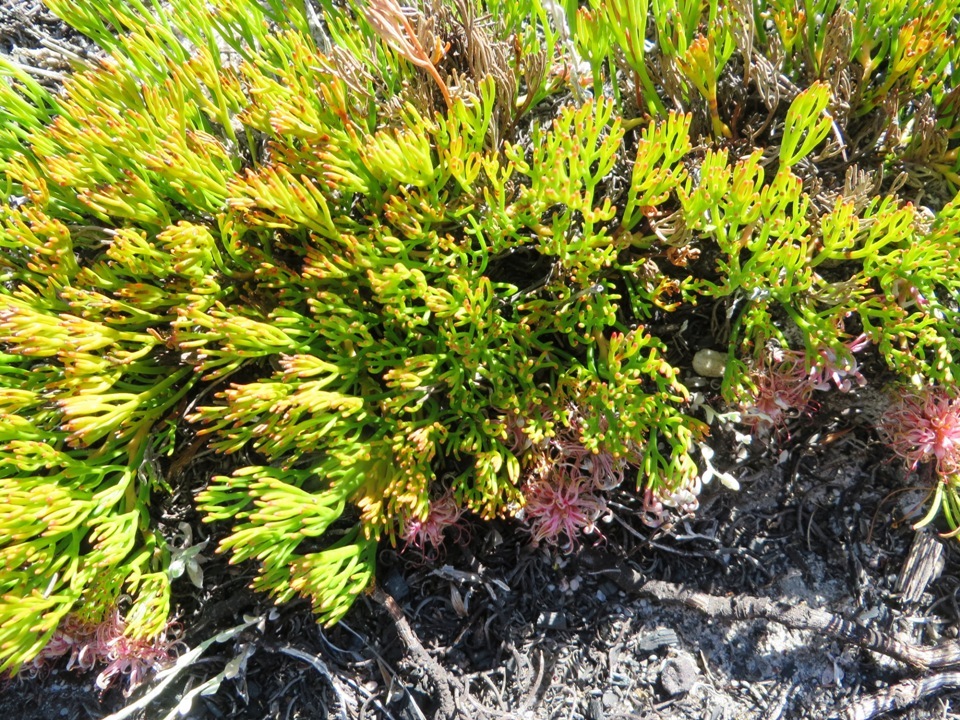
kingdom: Plantae
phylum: Tracheophyta
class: Magnoliopsida
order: Proteales
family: Proteaceae
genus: Serruria
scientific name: Serruria cygnea
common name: Swan spiderhead
